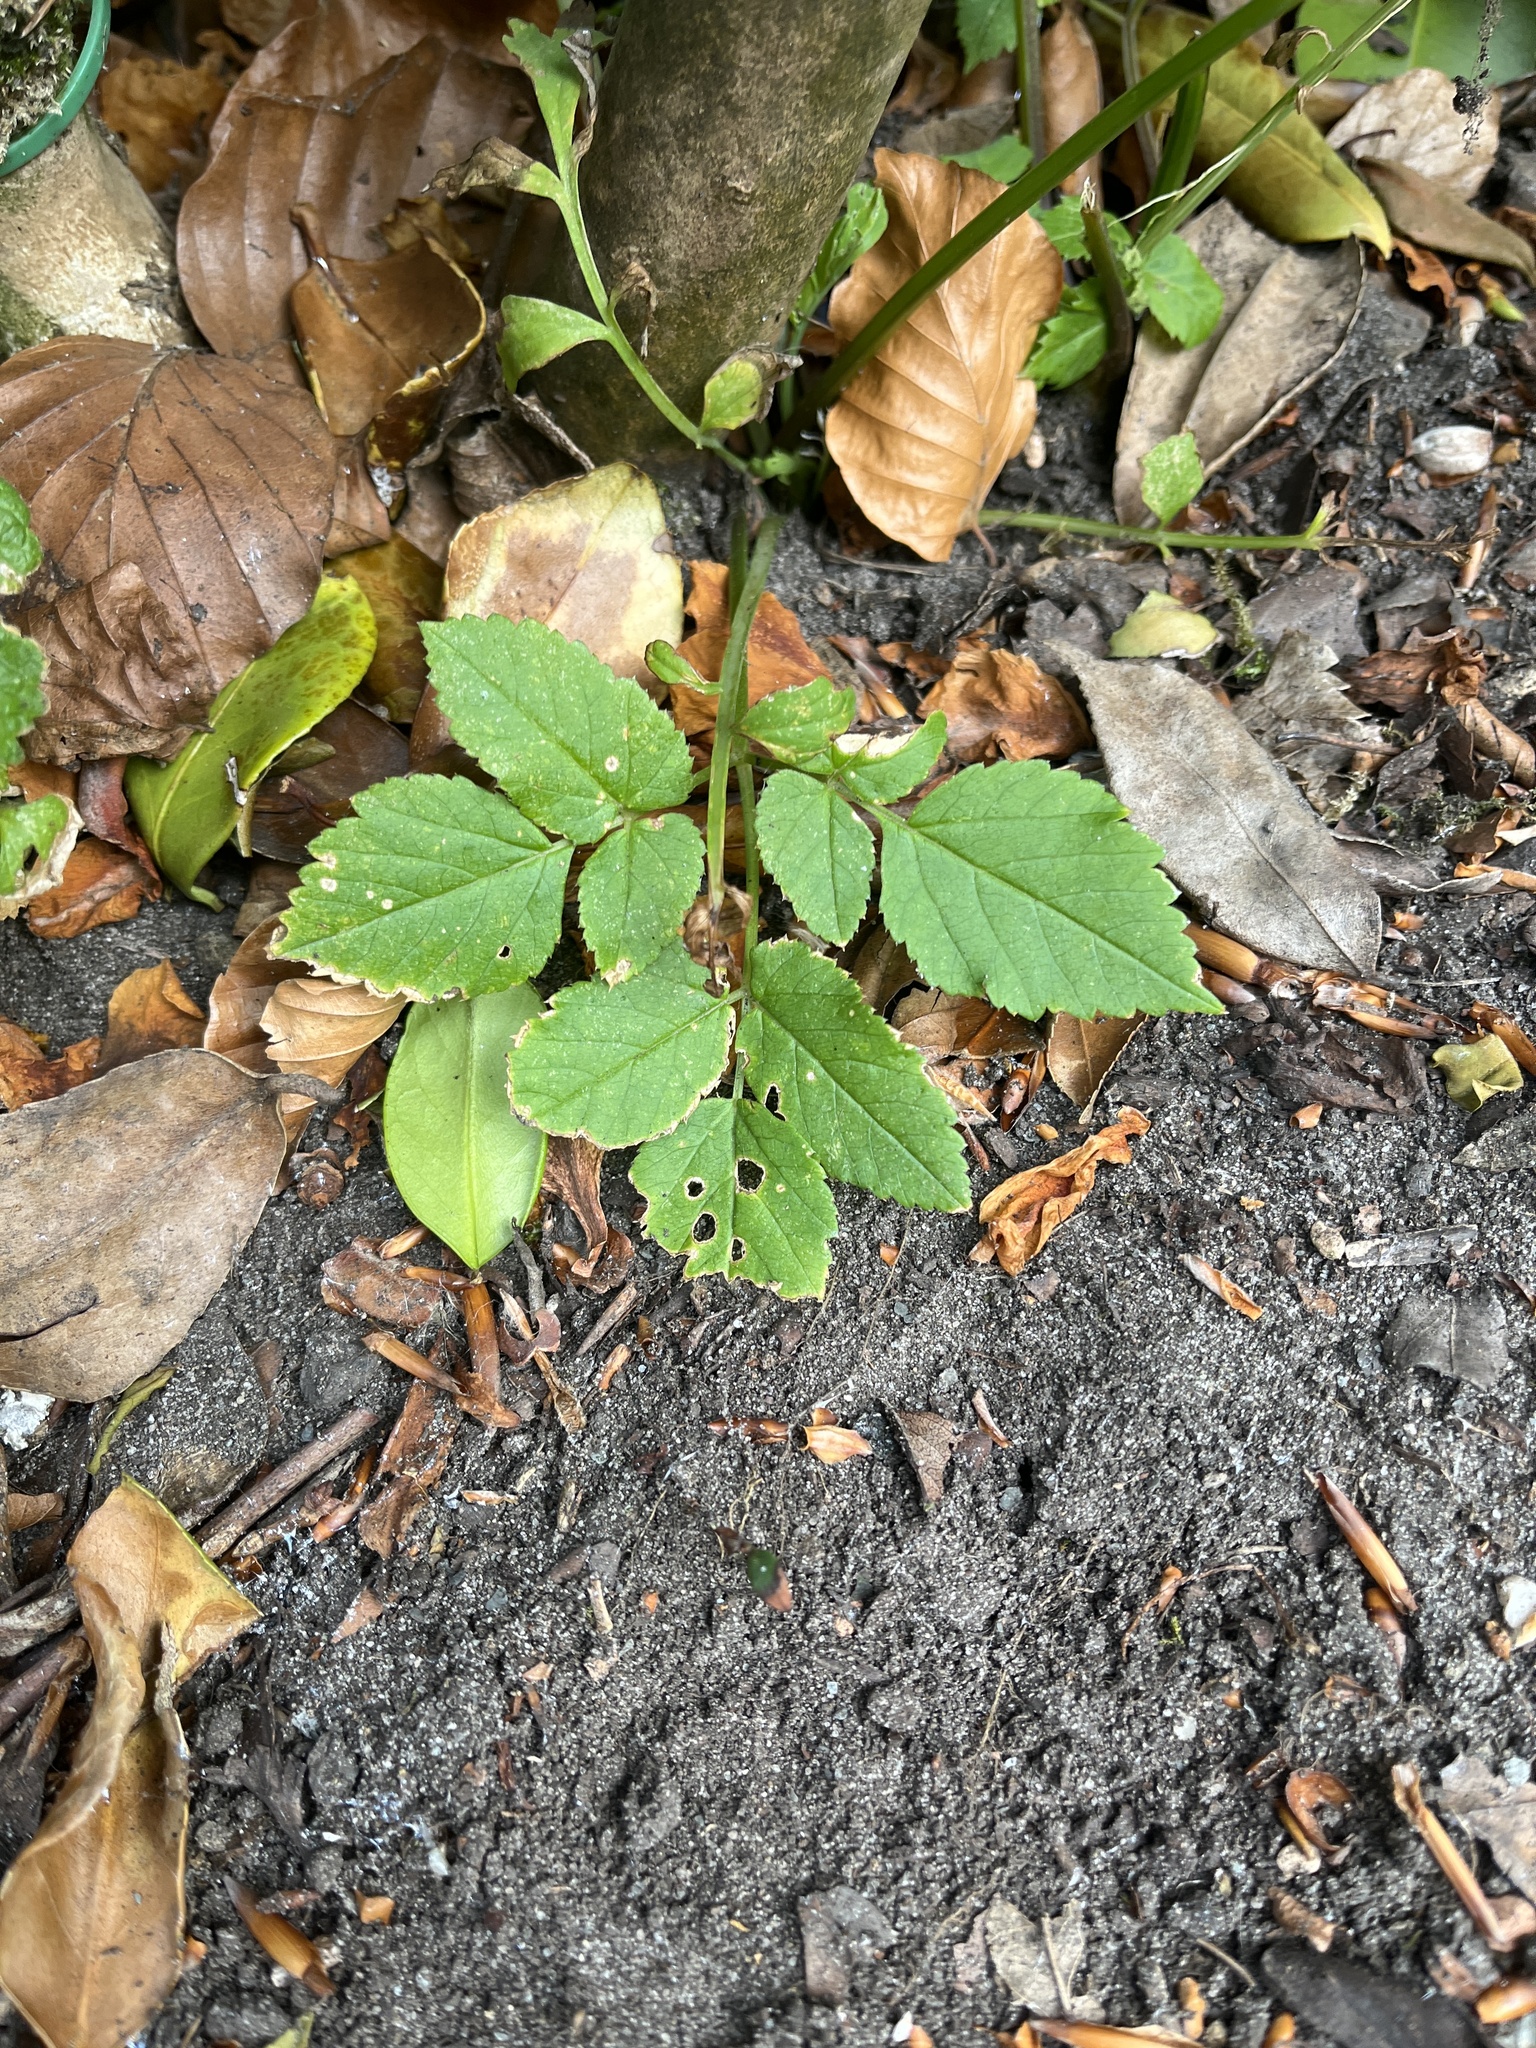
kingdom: Plantae
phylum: Tracheophyta
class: Magnoliopsida
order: Apiales
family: Apiaceae
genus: Aegopodium
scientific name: Aegopodium podagraria
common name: Ground-elder
